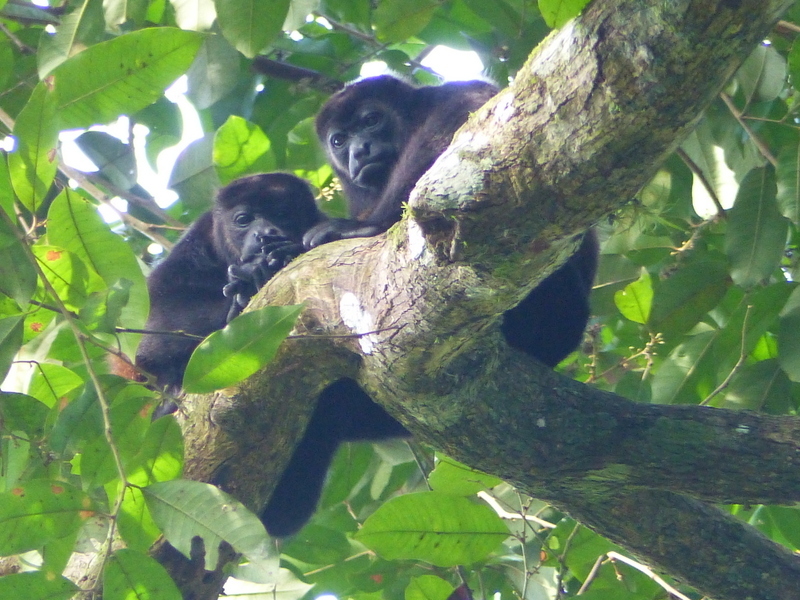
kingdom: Animalia
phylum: Chordata
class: Mammalia
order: Primates
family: Atelidae
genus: Alouatta
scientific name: Alouatta palliata
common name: Mantled howler
